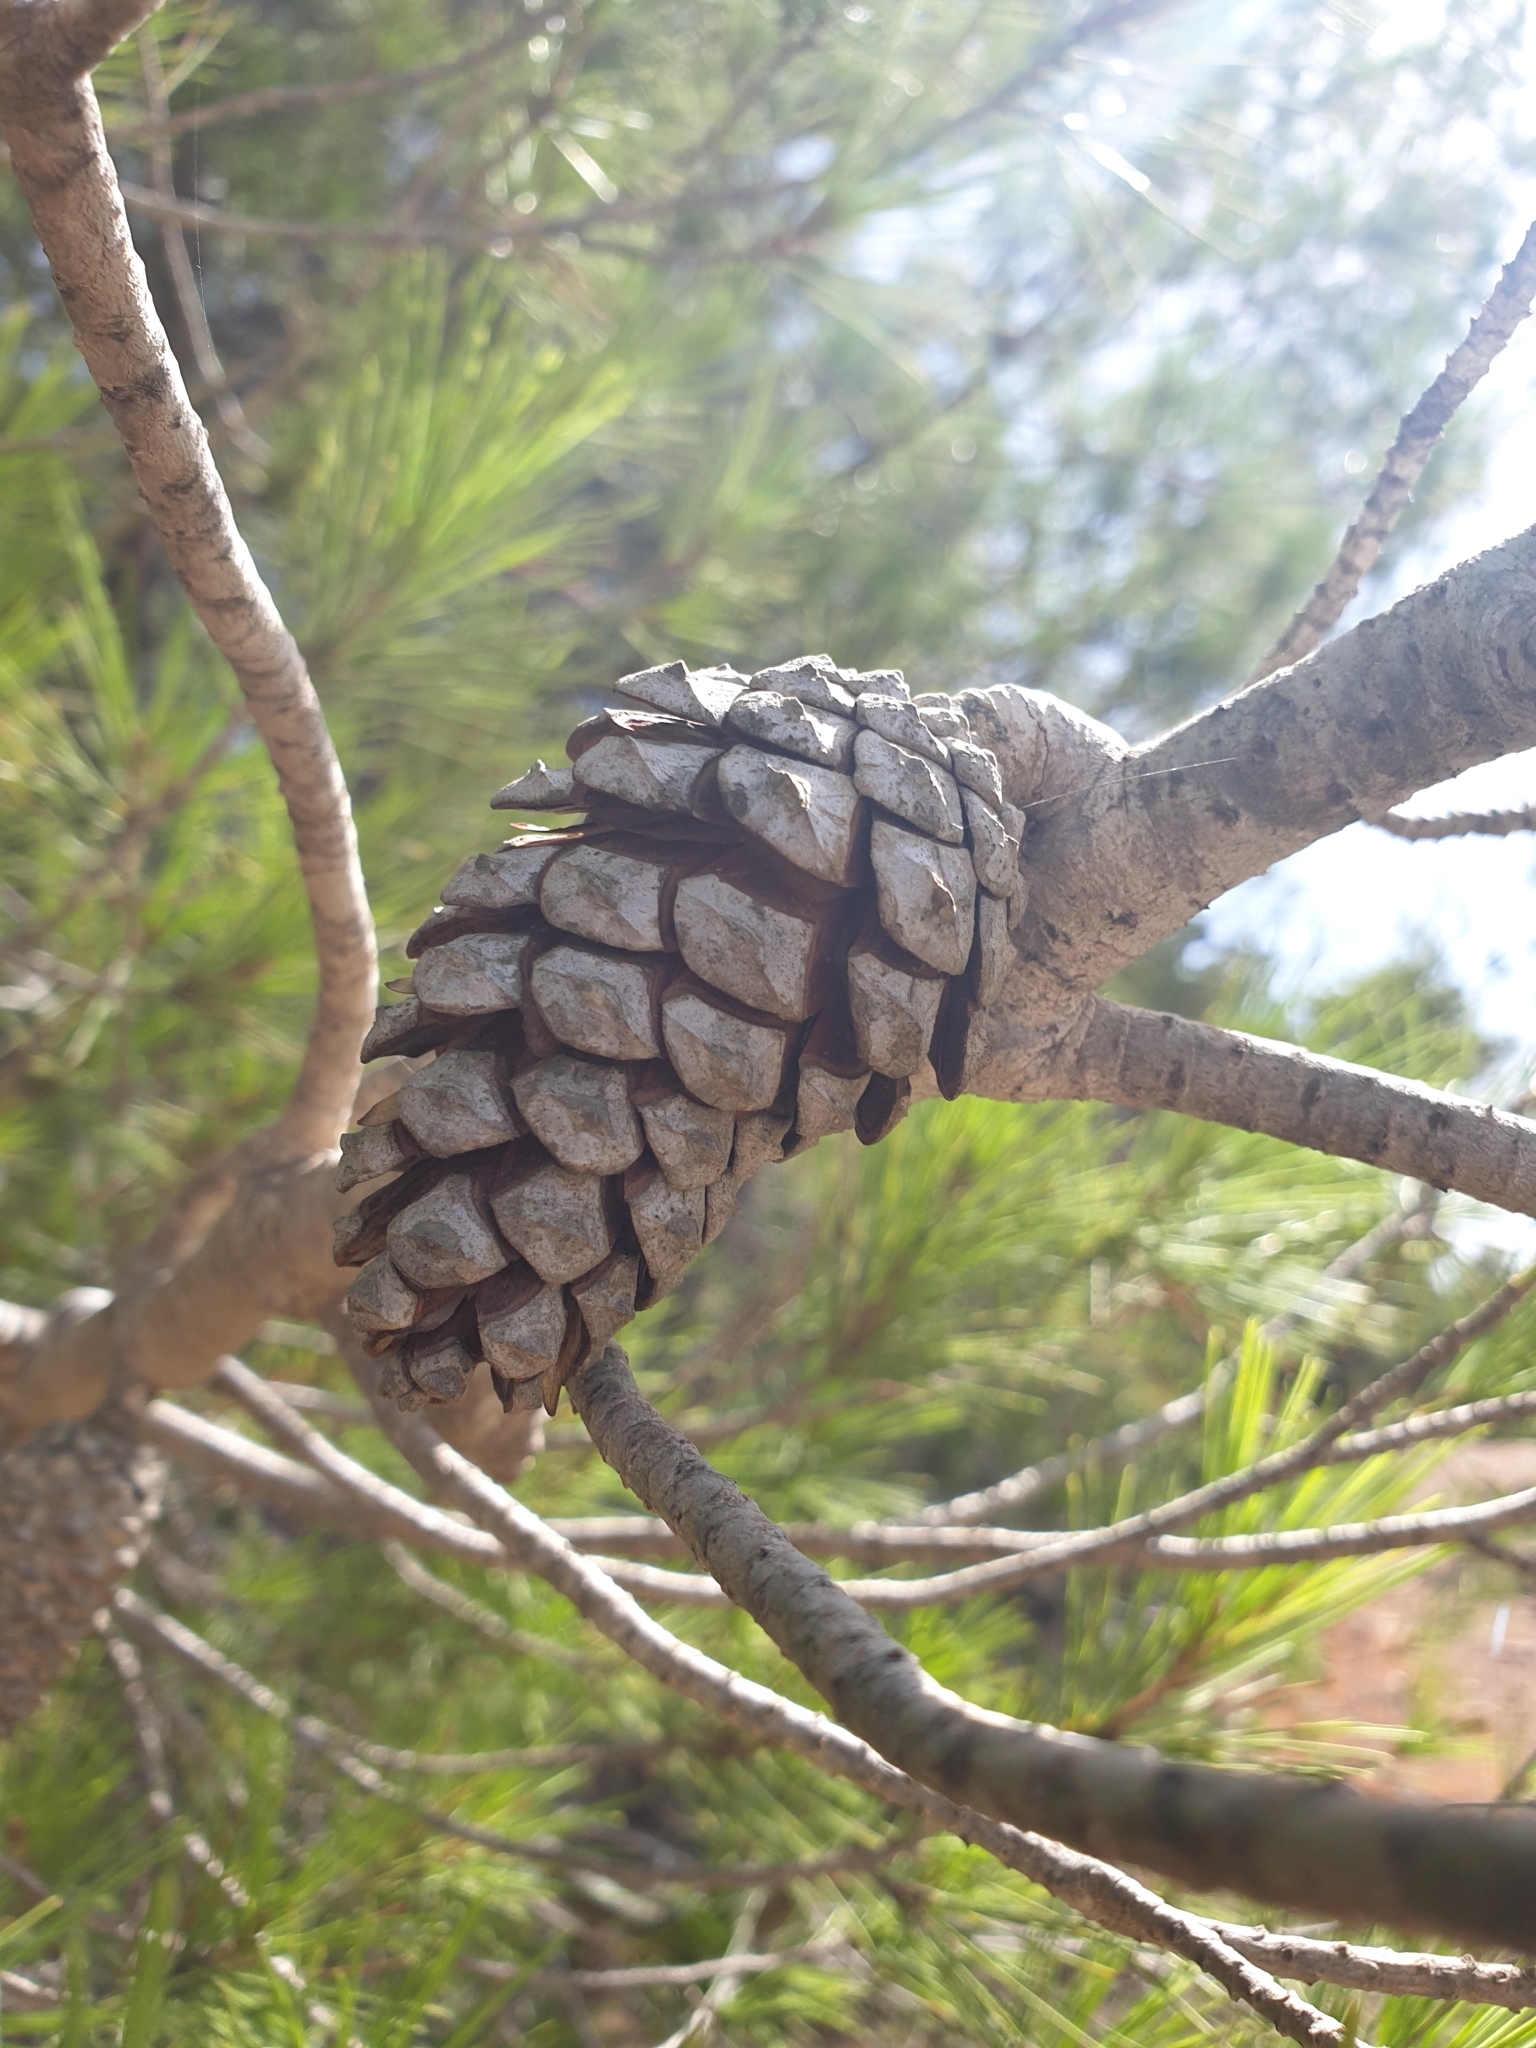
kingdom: Plantae
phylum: Tracheophyta
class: Pinopsida
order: Pinales
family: Pinaceae
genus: Pinus
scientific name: Pinus halepensis
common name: Aleppo pine
